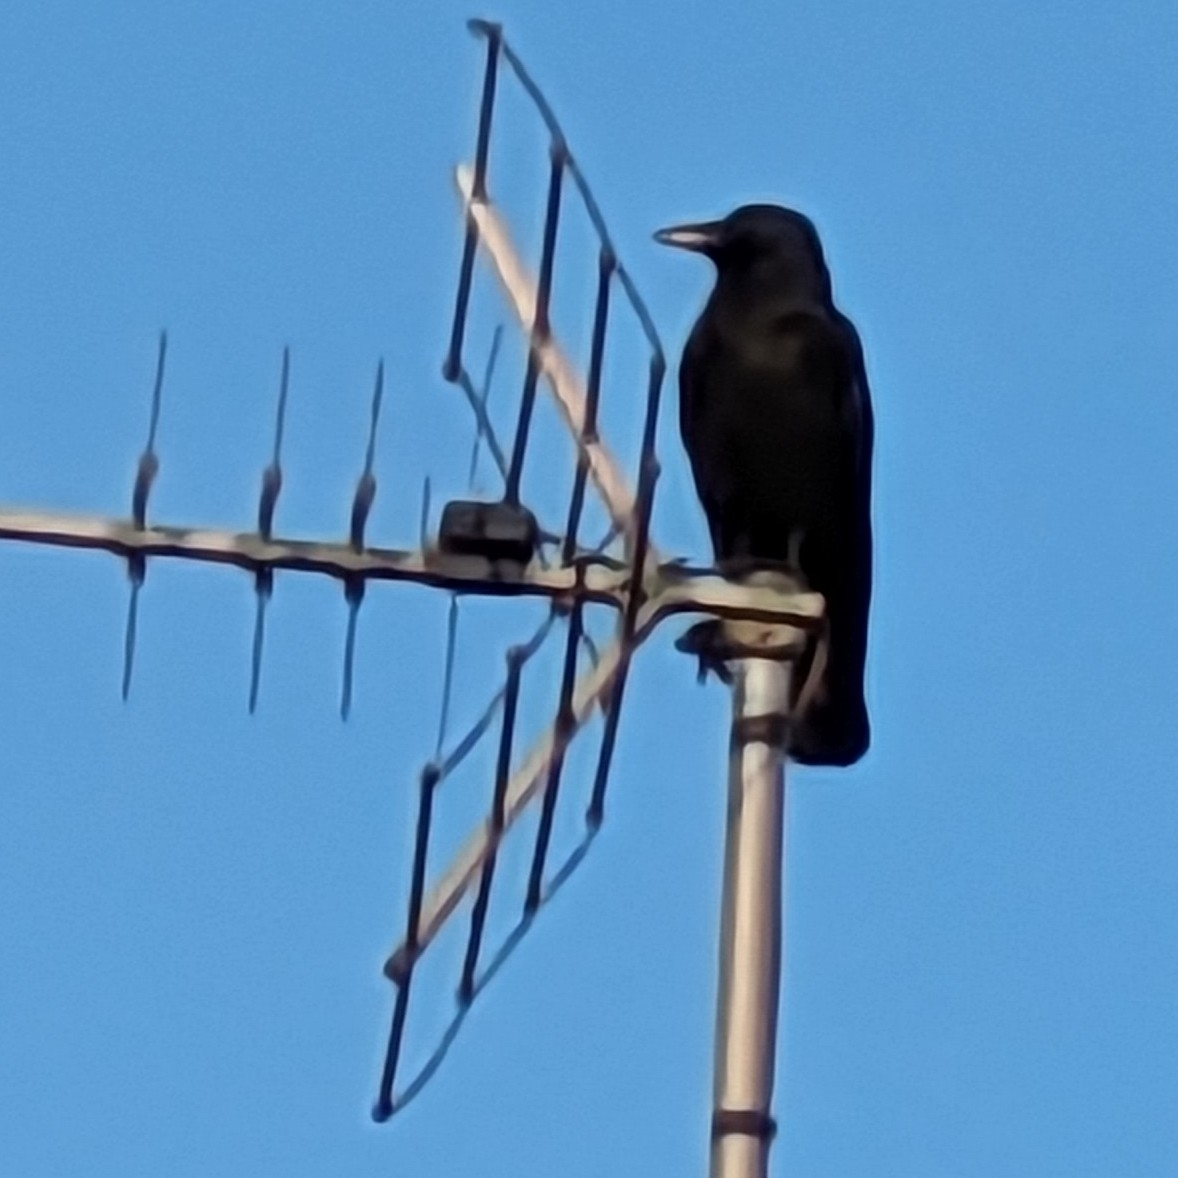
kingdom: Animalia
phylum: Chordata
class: Aves
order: Passeriformes
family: Corvidae
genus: Corvus
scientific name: Corvus corone
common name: Carrion crow
